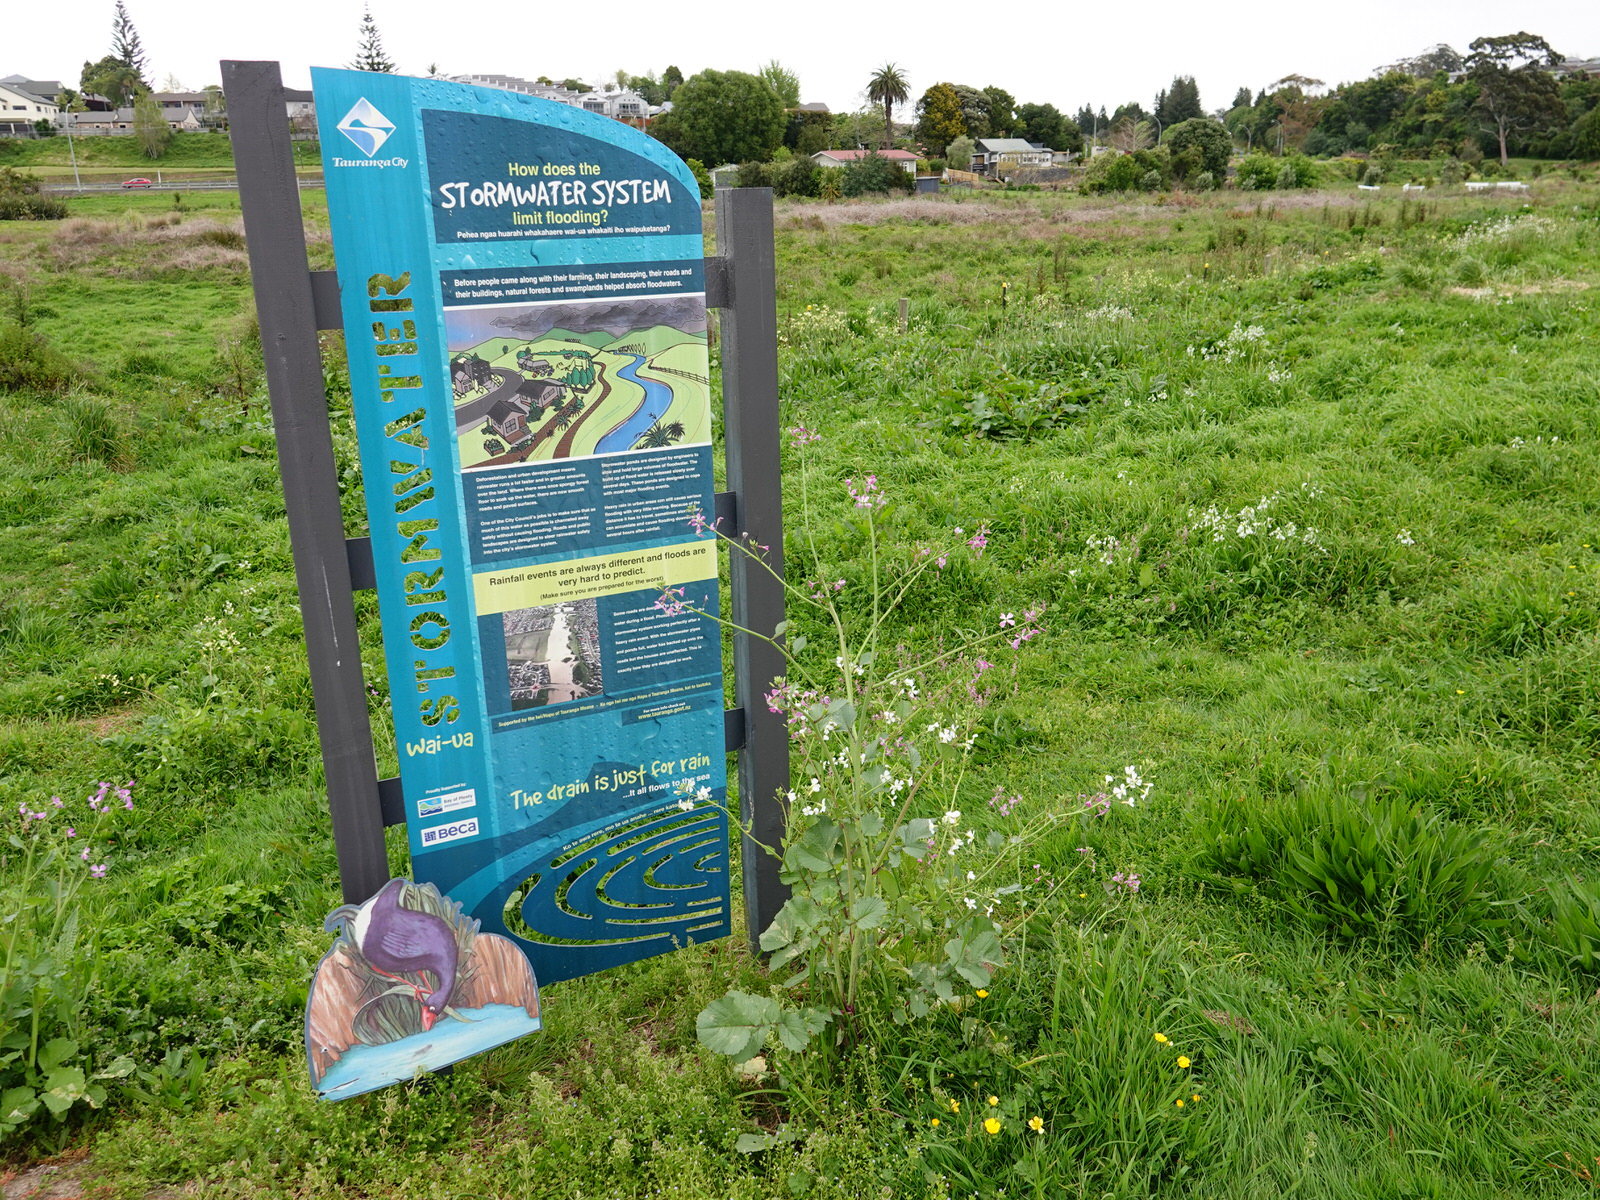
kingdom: Plantae
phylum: Tracheophyta
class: Magnoliopsida
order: Brassicales
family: Brassicaceae
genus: Raphanus
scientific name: Raphanus sativus
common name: Cultivated radish
